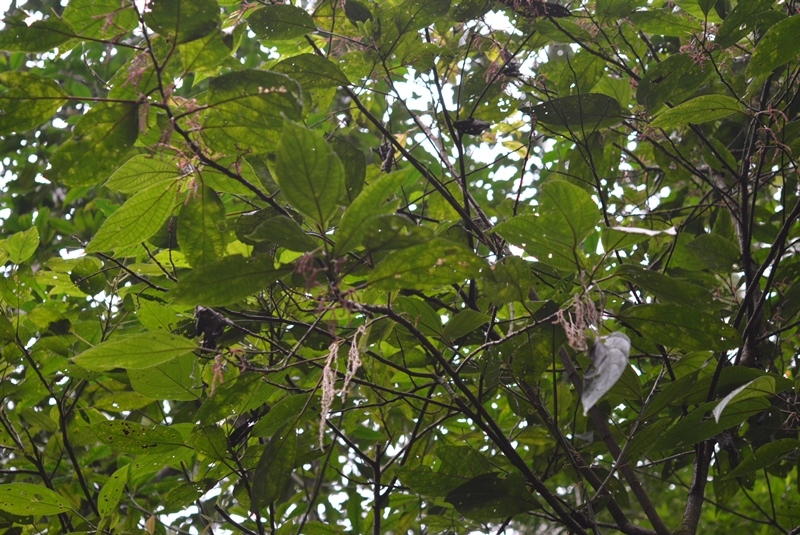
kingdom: Plantae
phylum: Tracheophyta
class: Magnoliopsida
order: Rosales
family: Urticaceae
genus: Myriocarpa
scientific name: Myriocarpa bifurca
